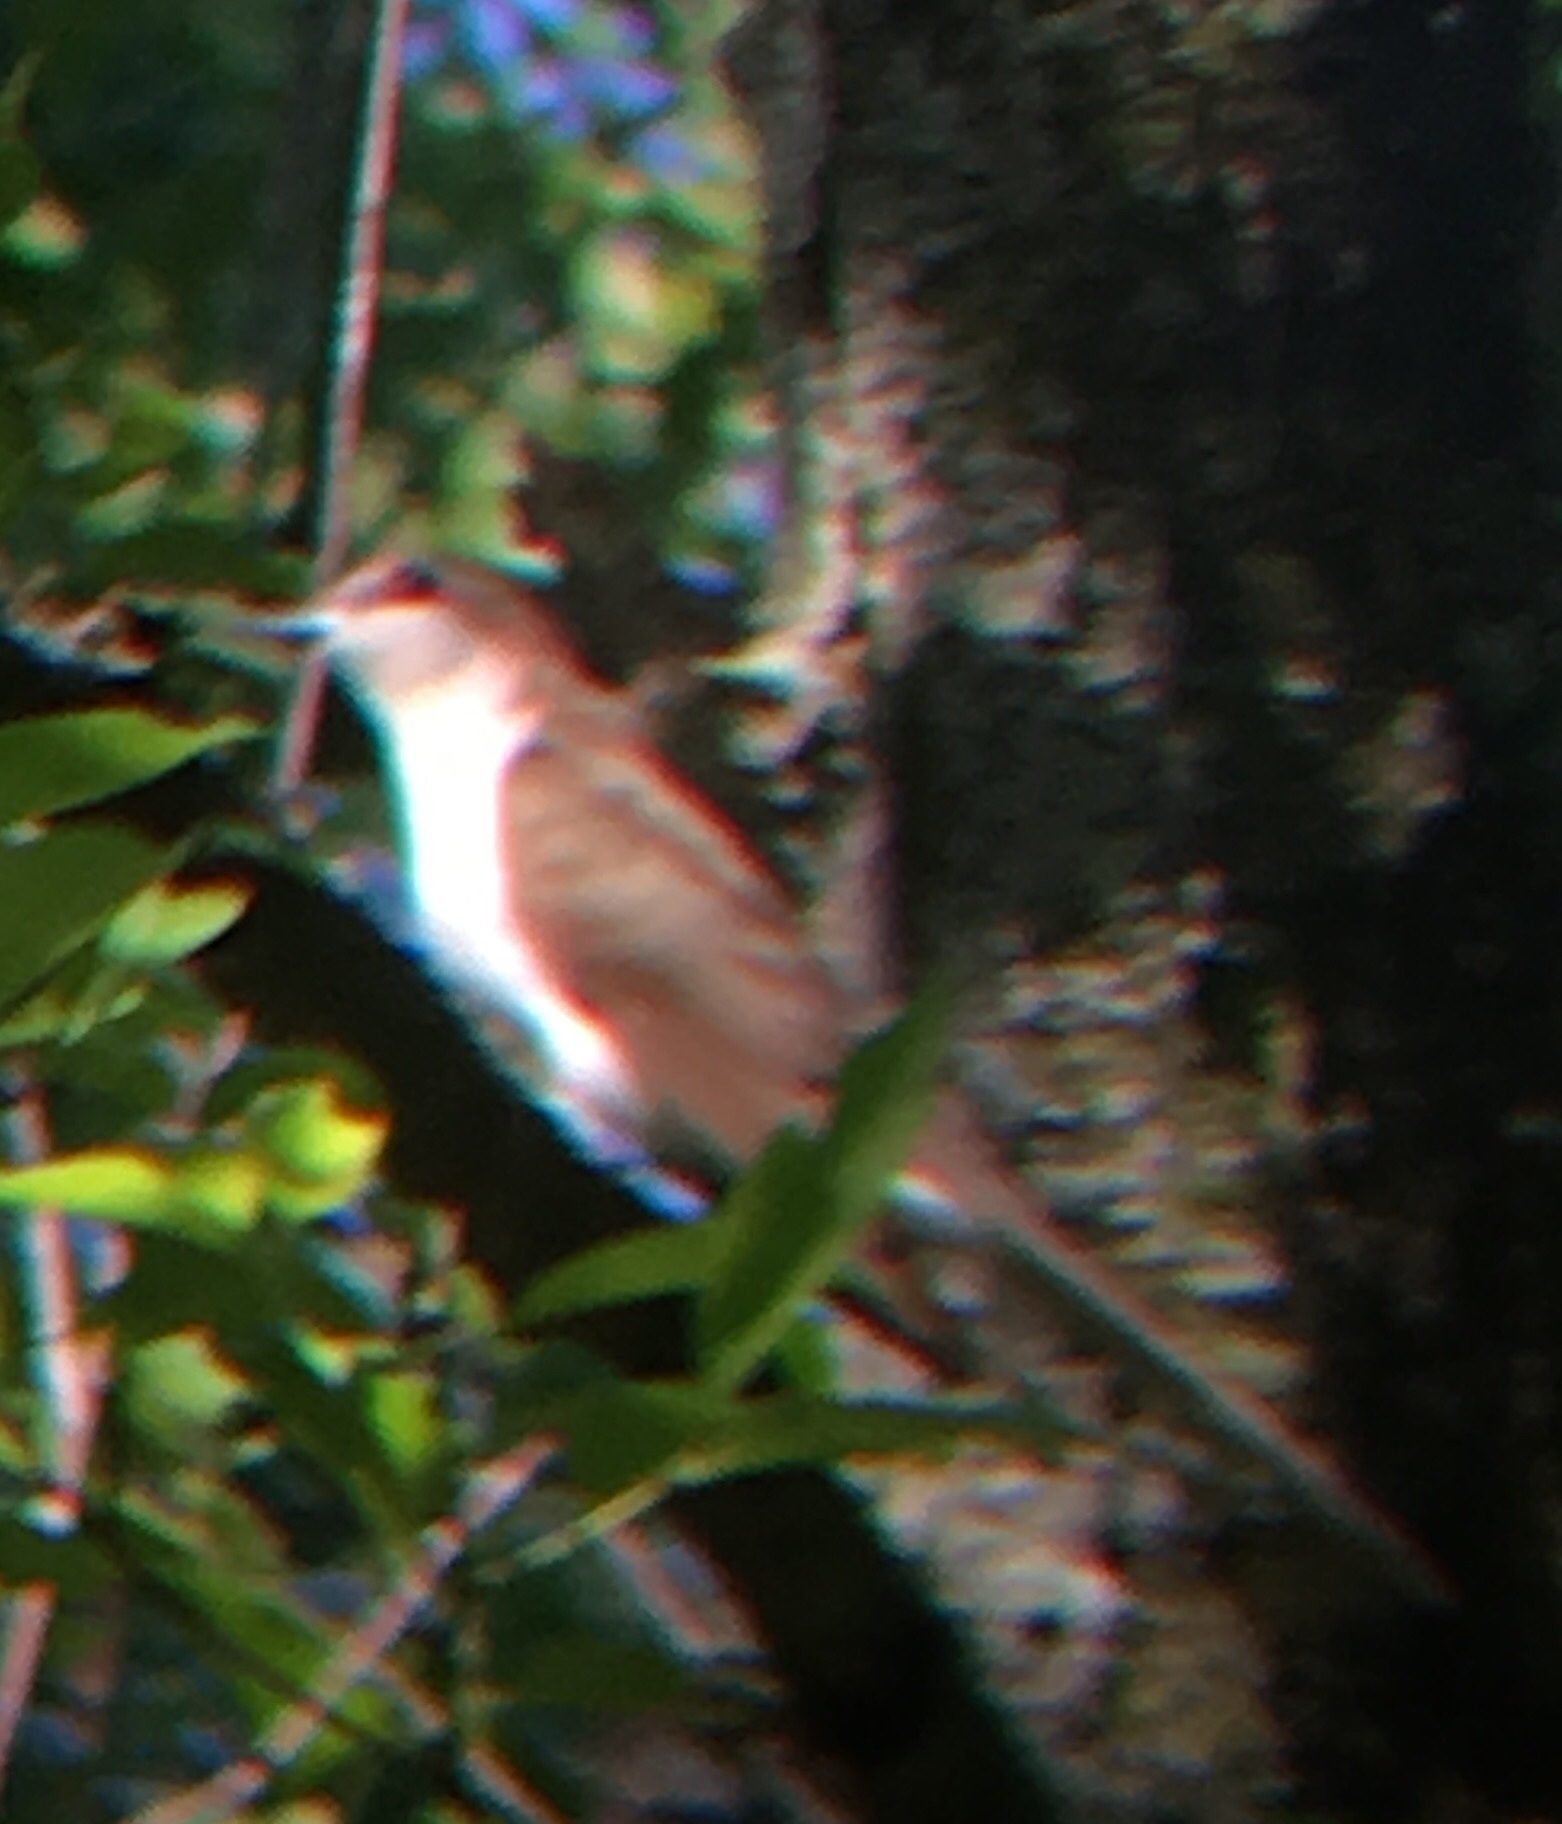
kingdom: Animalia
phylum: Chordata
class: Aves
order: Cuculiformes
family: Cuculidae
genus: Coccyzus
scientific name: Coccyzus erythropthalmus
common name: Black-billed cuckoo
